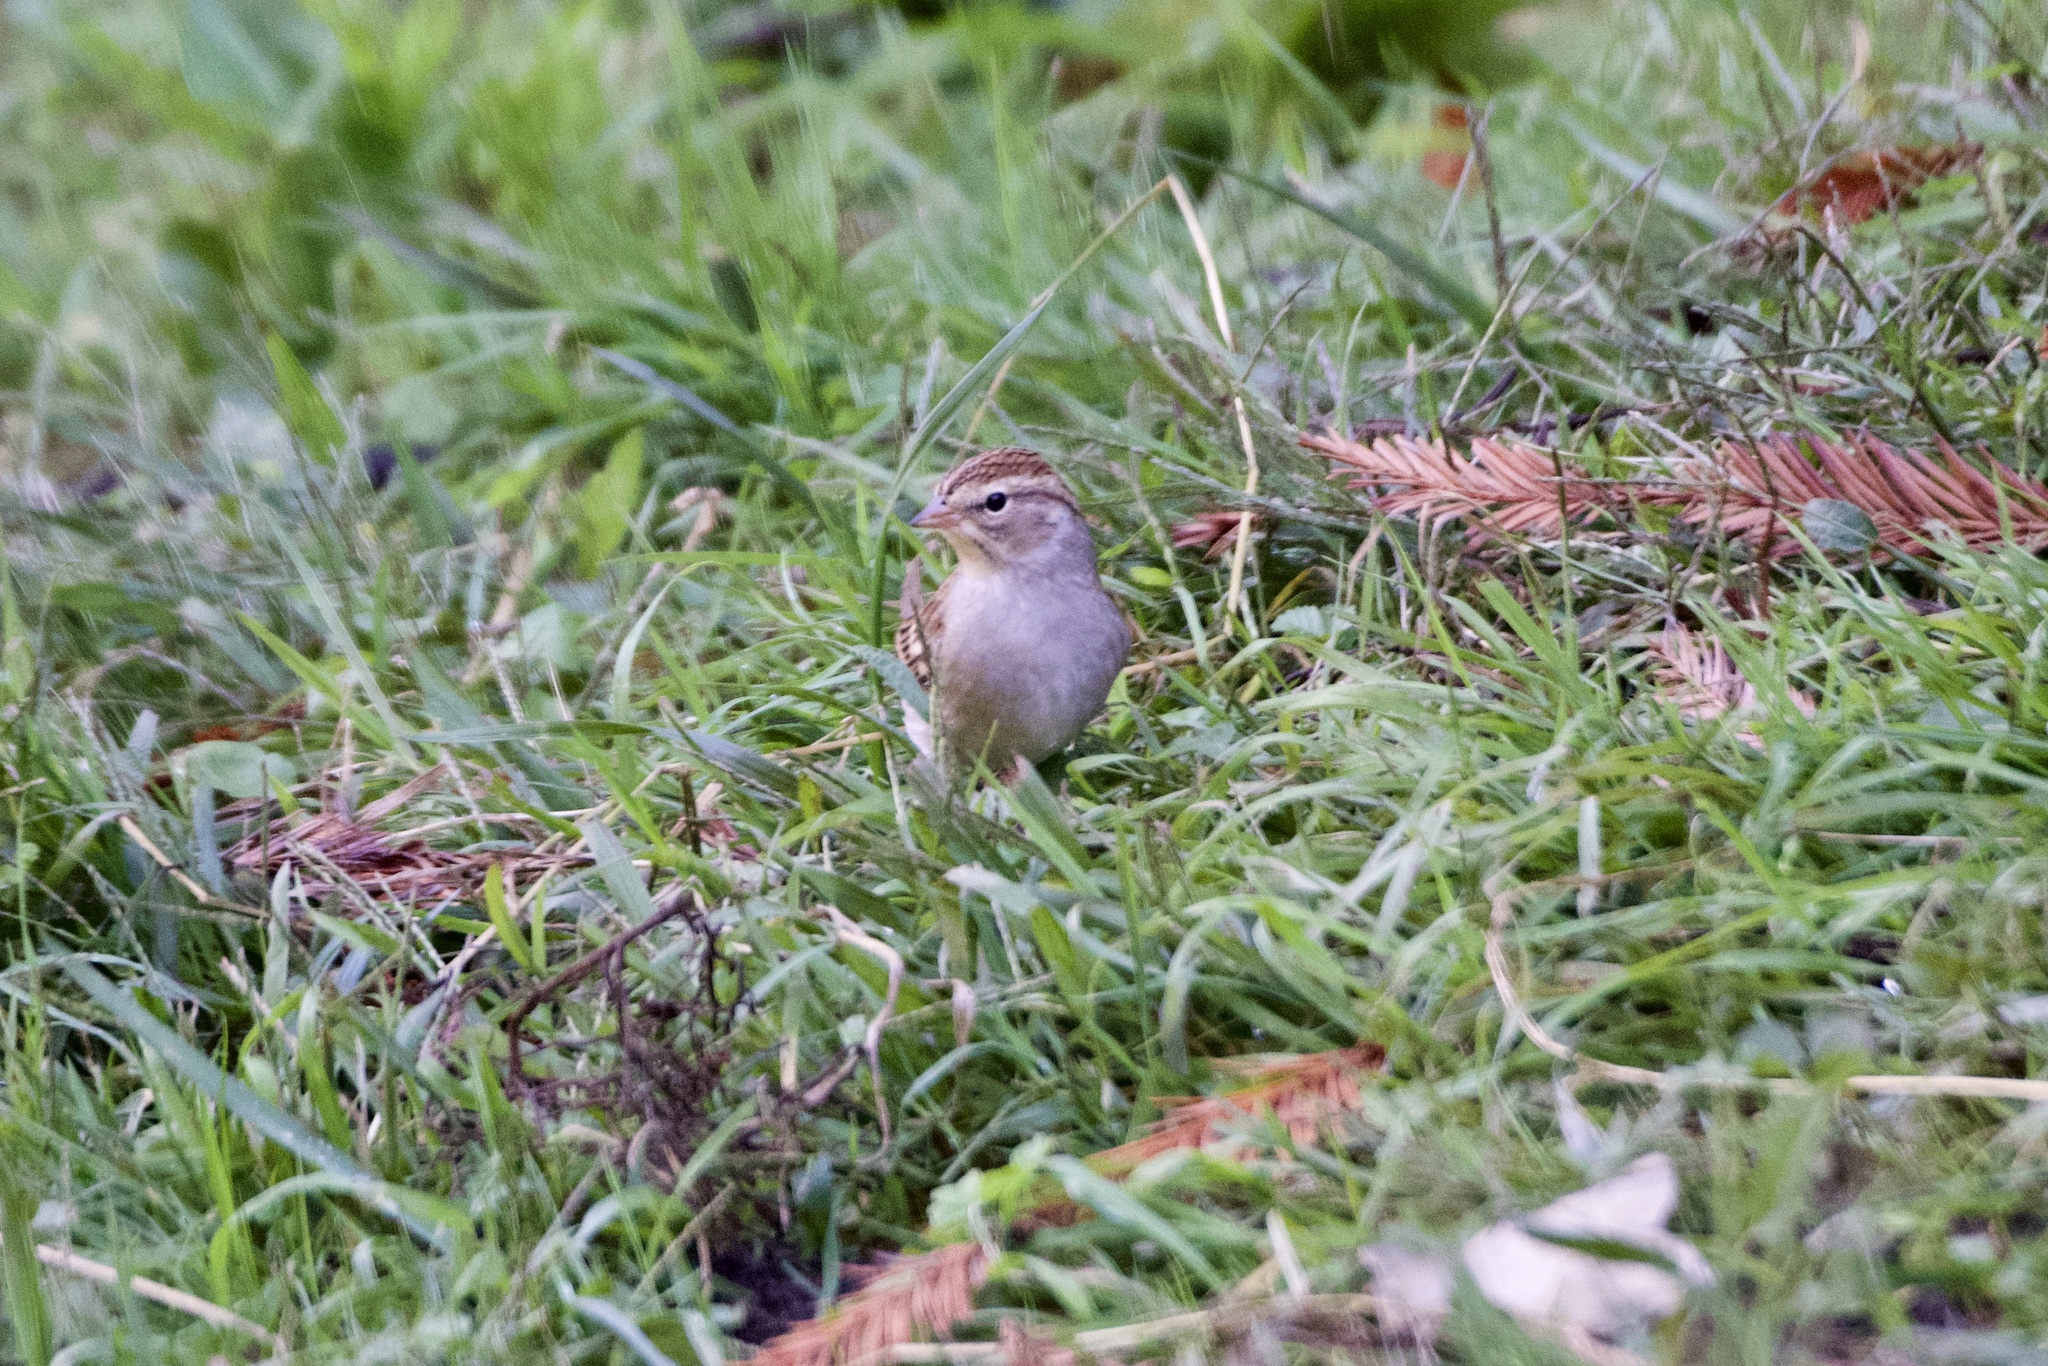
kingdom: Animalia
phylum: Chordata
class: Aves
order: Passeriformes
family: Passerellidae
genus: Spizella
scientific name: Spizella passerina
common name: Chipping sparrow
